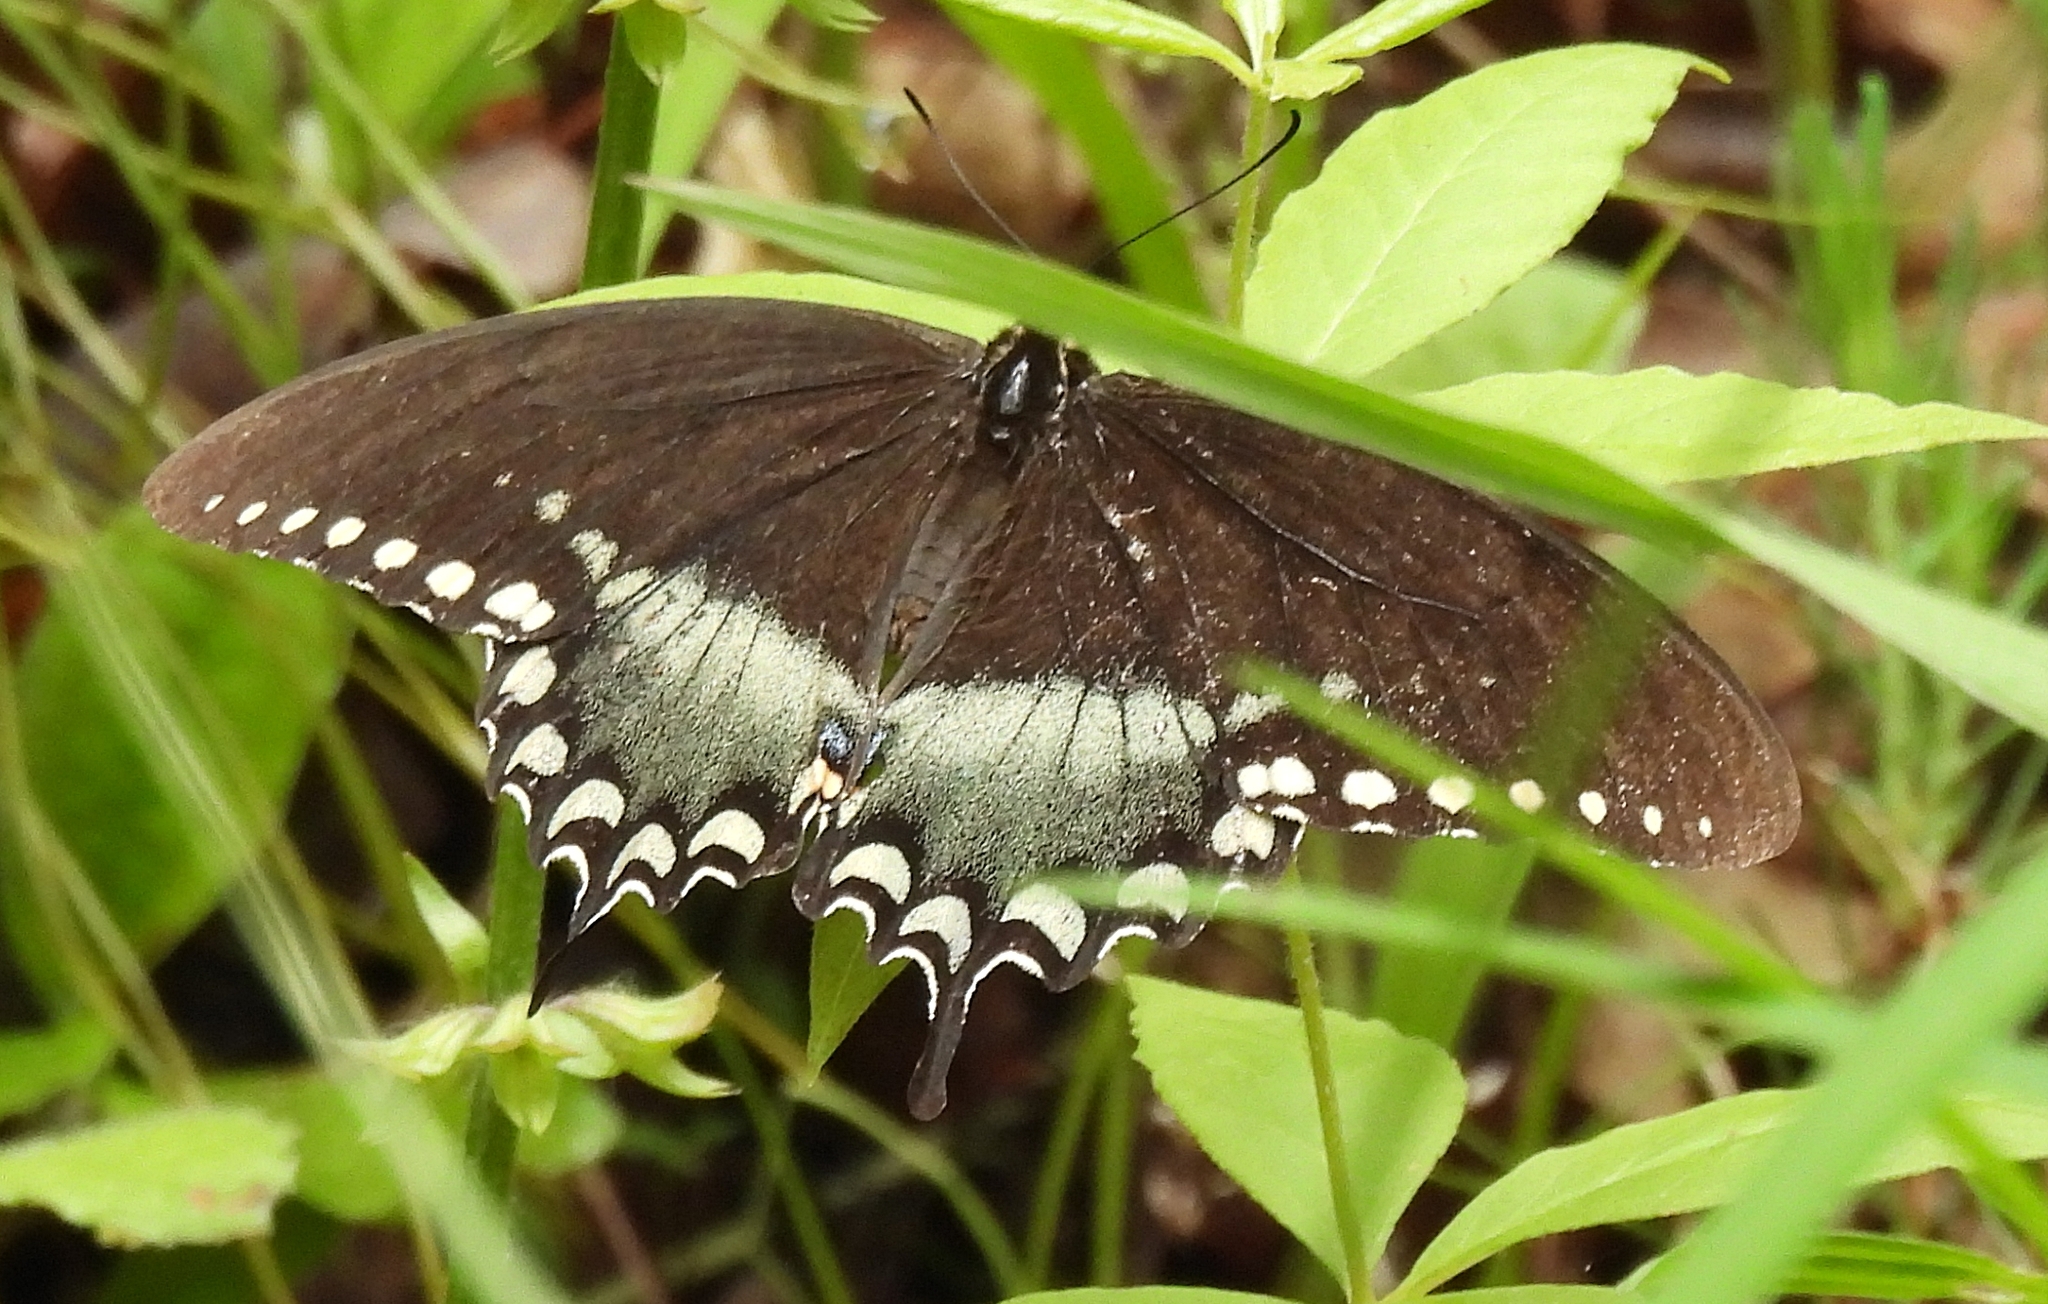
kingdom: Animalia
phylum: Arthropoda
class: Insecta
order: Lepidoptera
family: Papilionidae
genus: Papilio
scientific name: Papilio troilus
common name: Spicebush swallowtail
